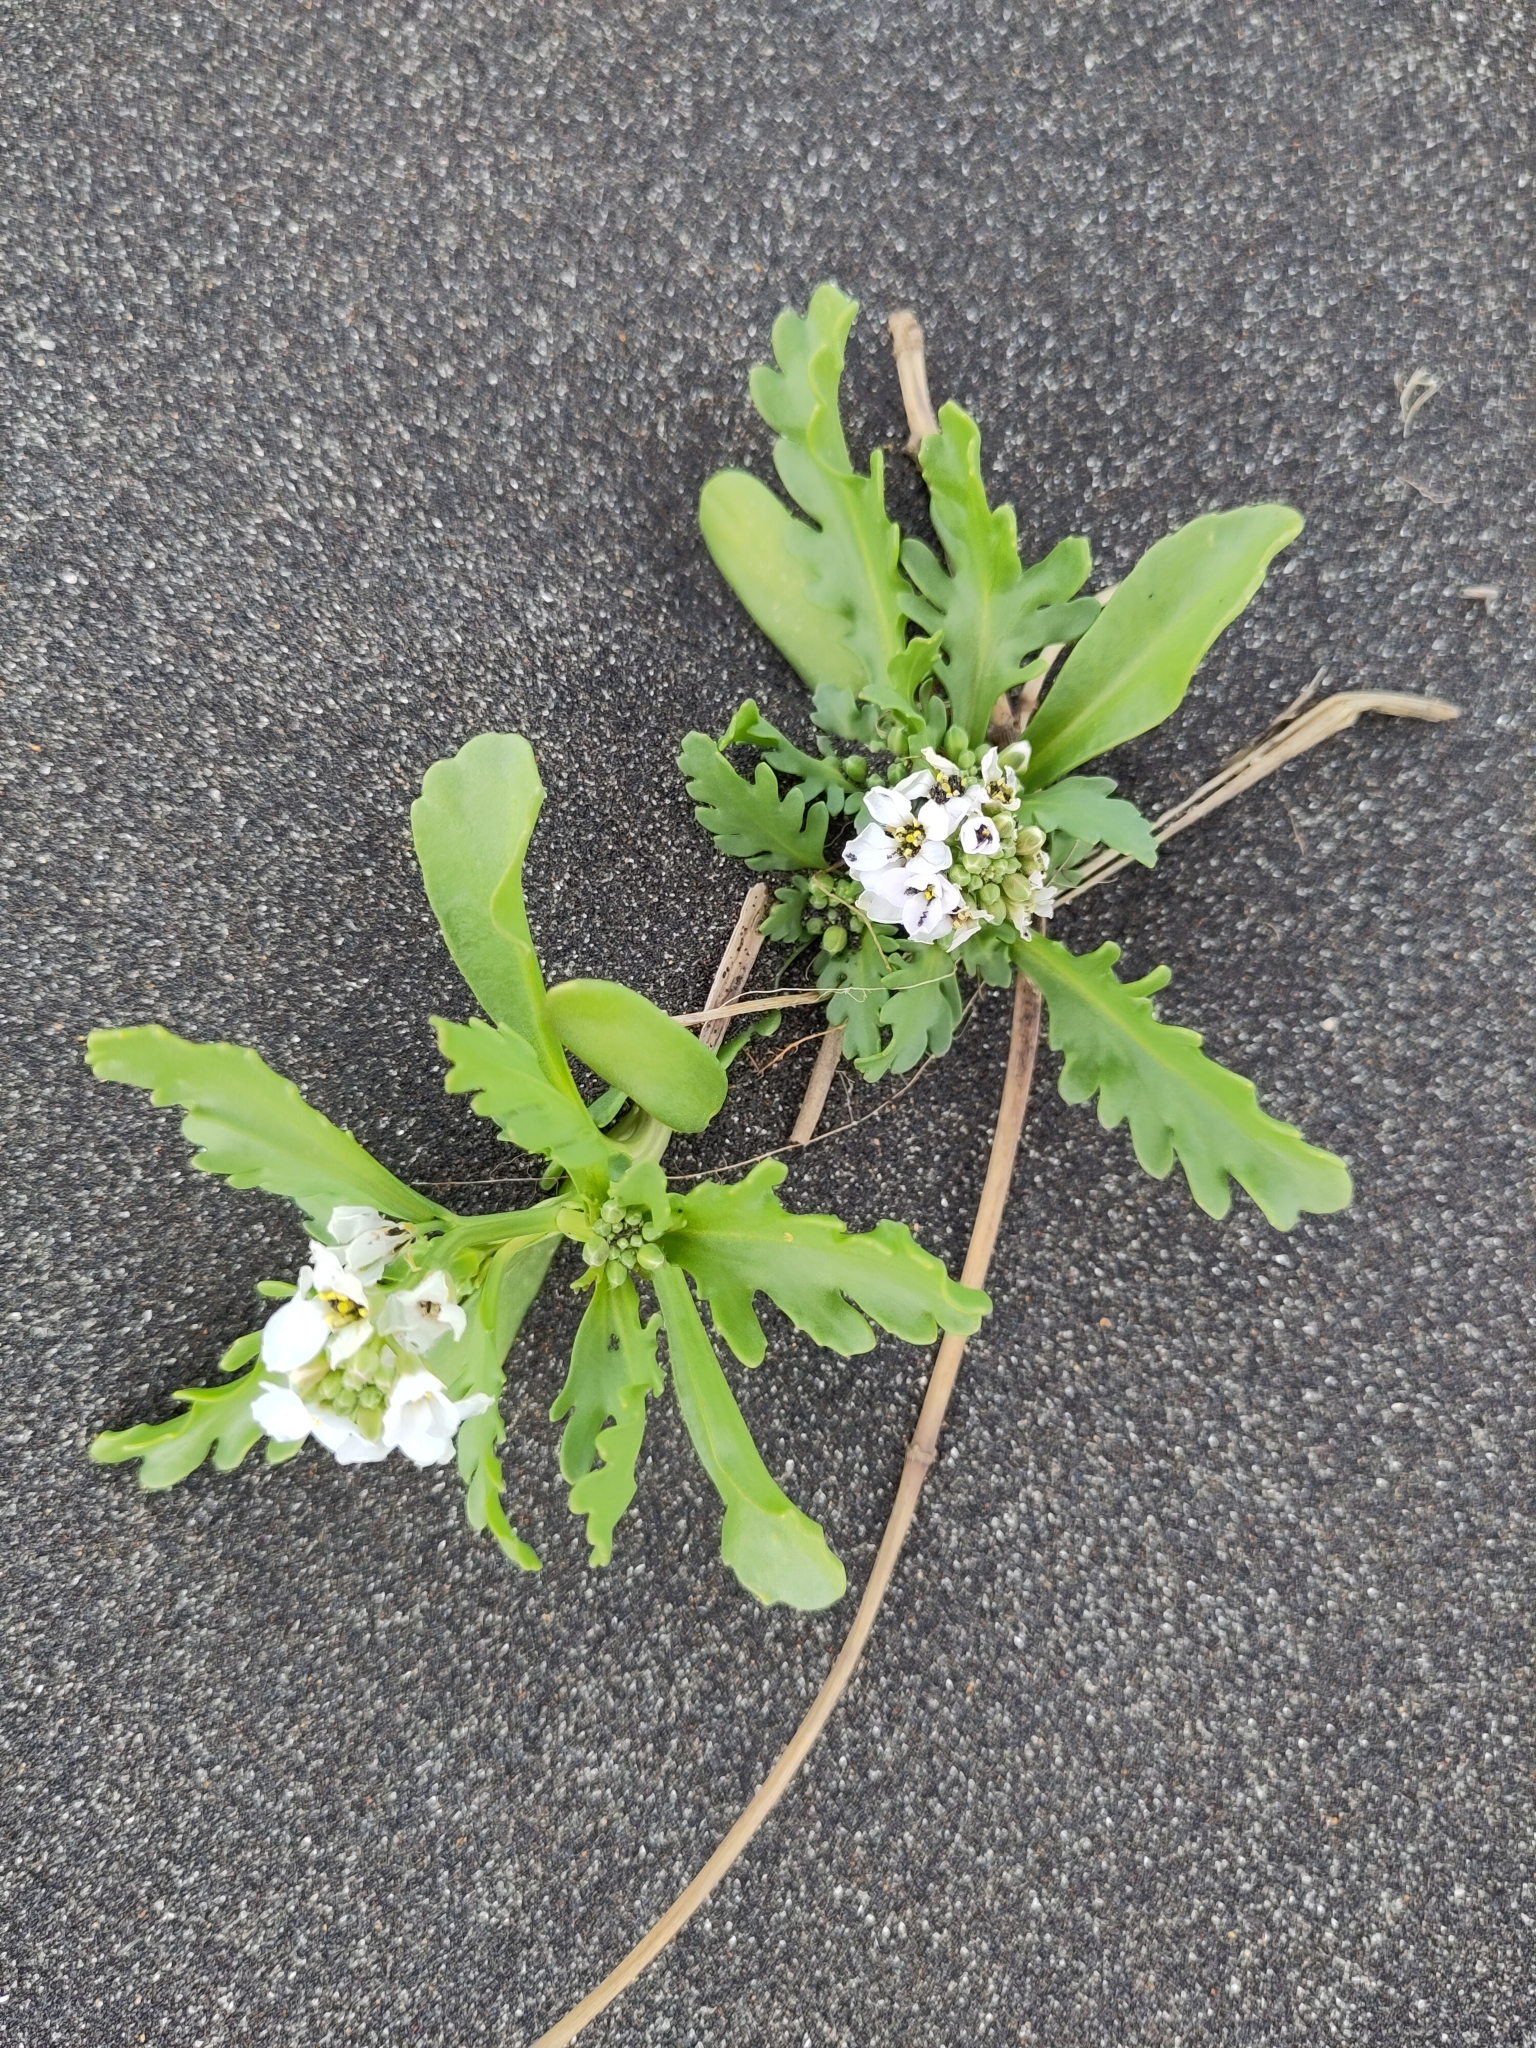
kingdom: Plantae
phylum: Tracheophyta
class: Magnoliopsida
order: Brassicales
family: Brassicaceae
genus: Cakile
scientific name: Cakile arctica
